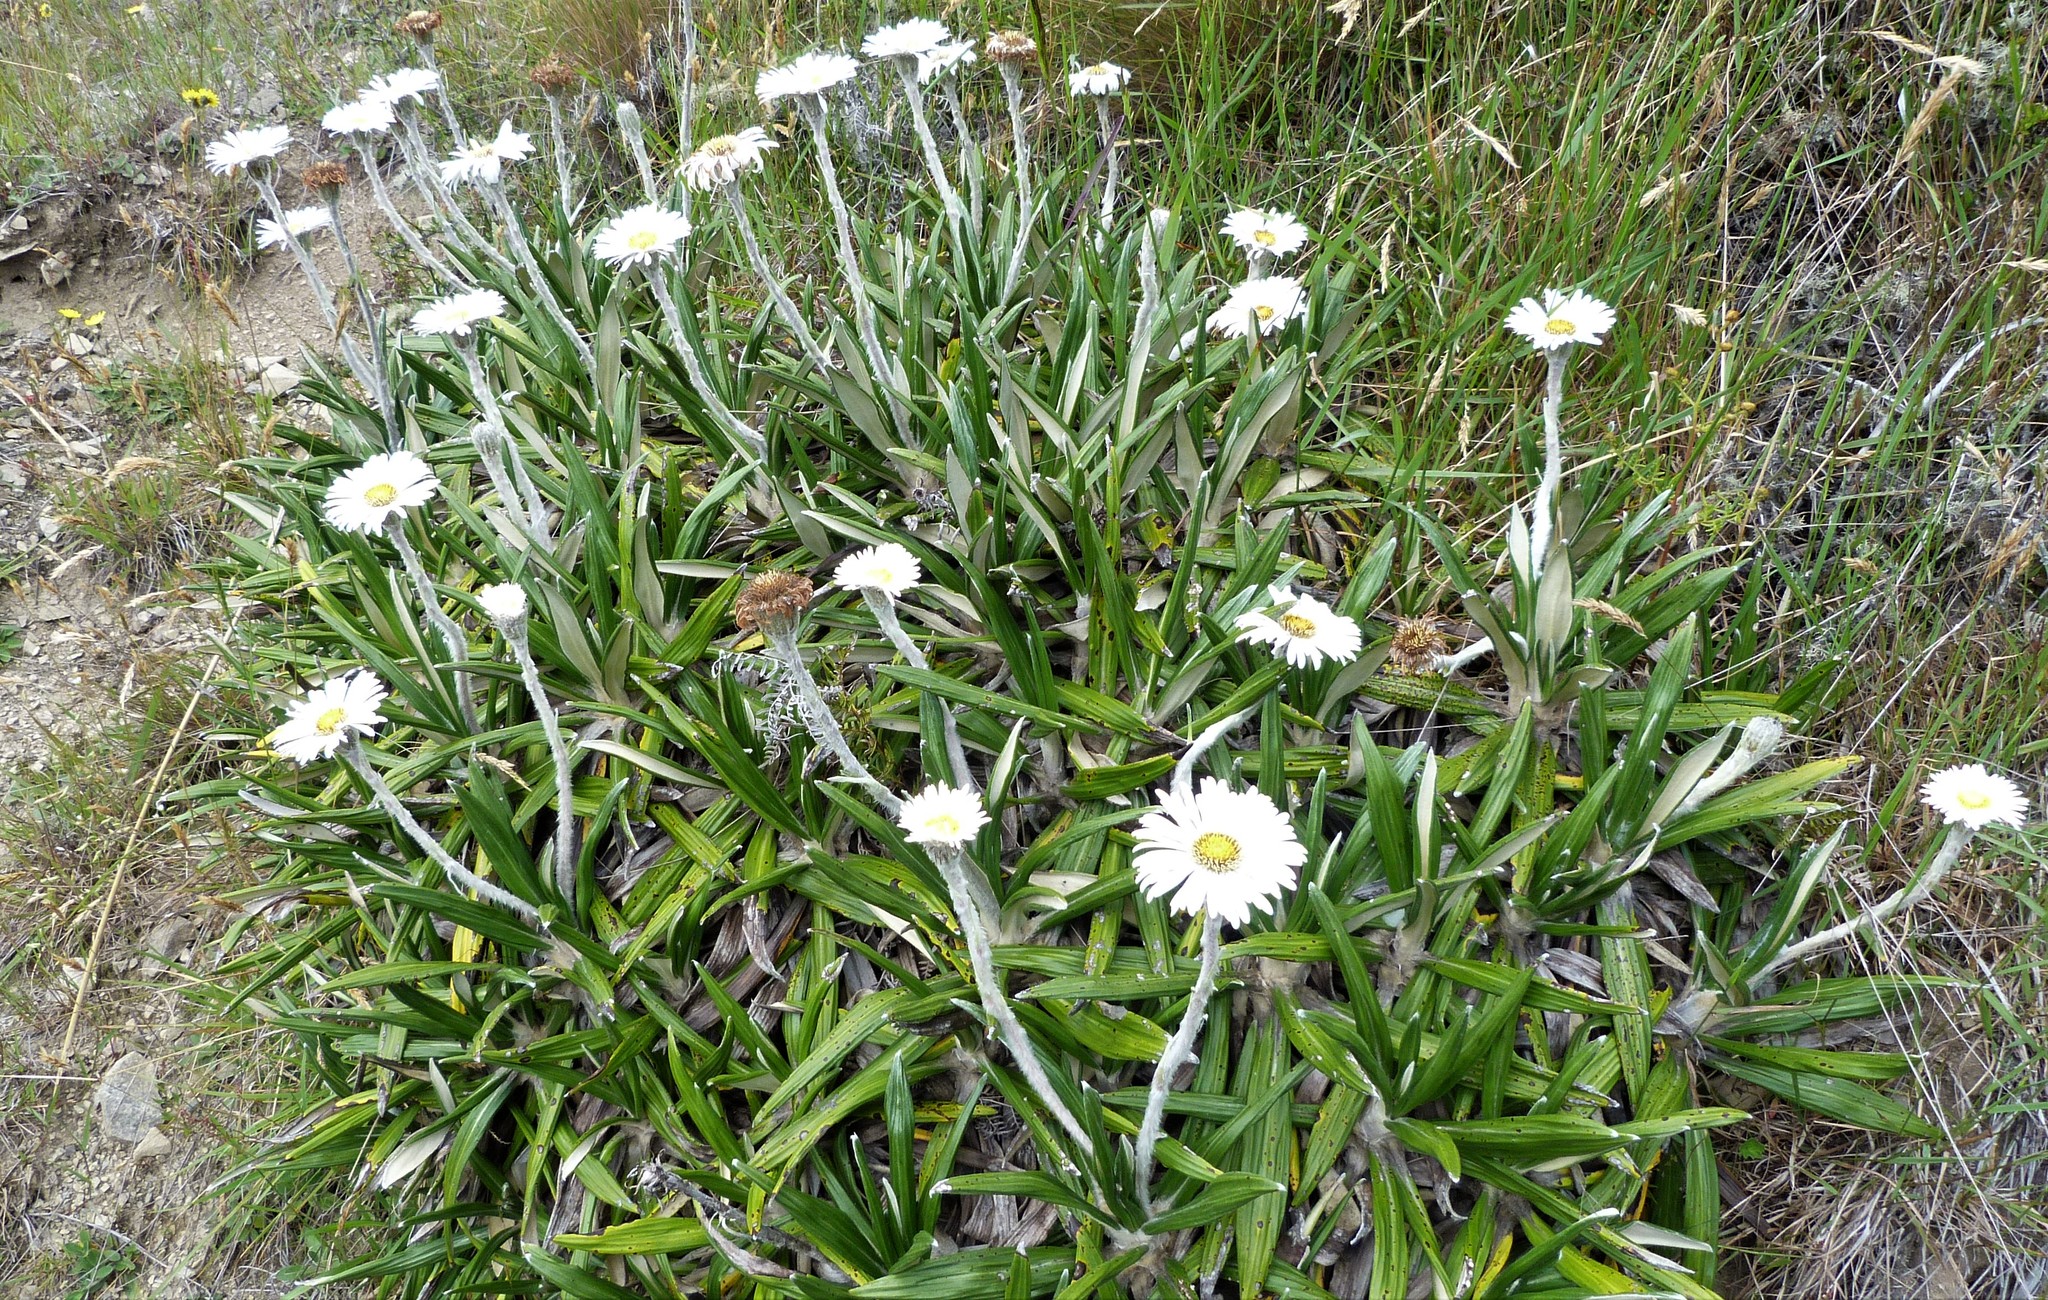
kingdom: Plantae
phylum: Tracheophyta
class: Magnoliopsida
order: Asterales
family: Asteraceae
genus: Celmisia
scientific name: Celmisia spectabilis
